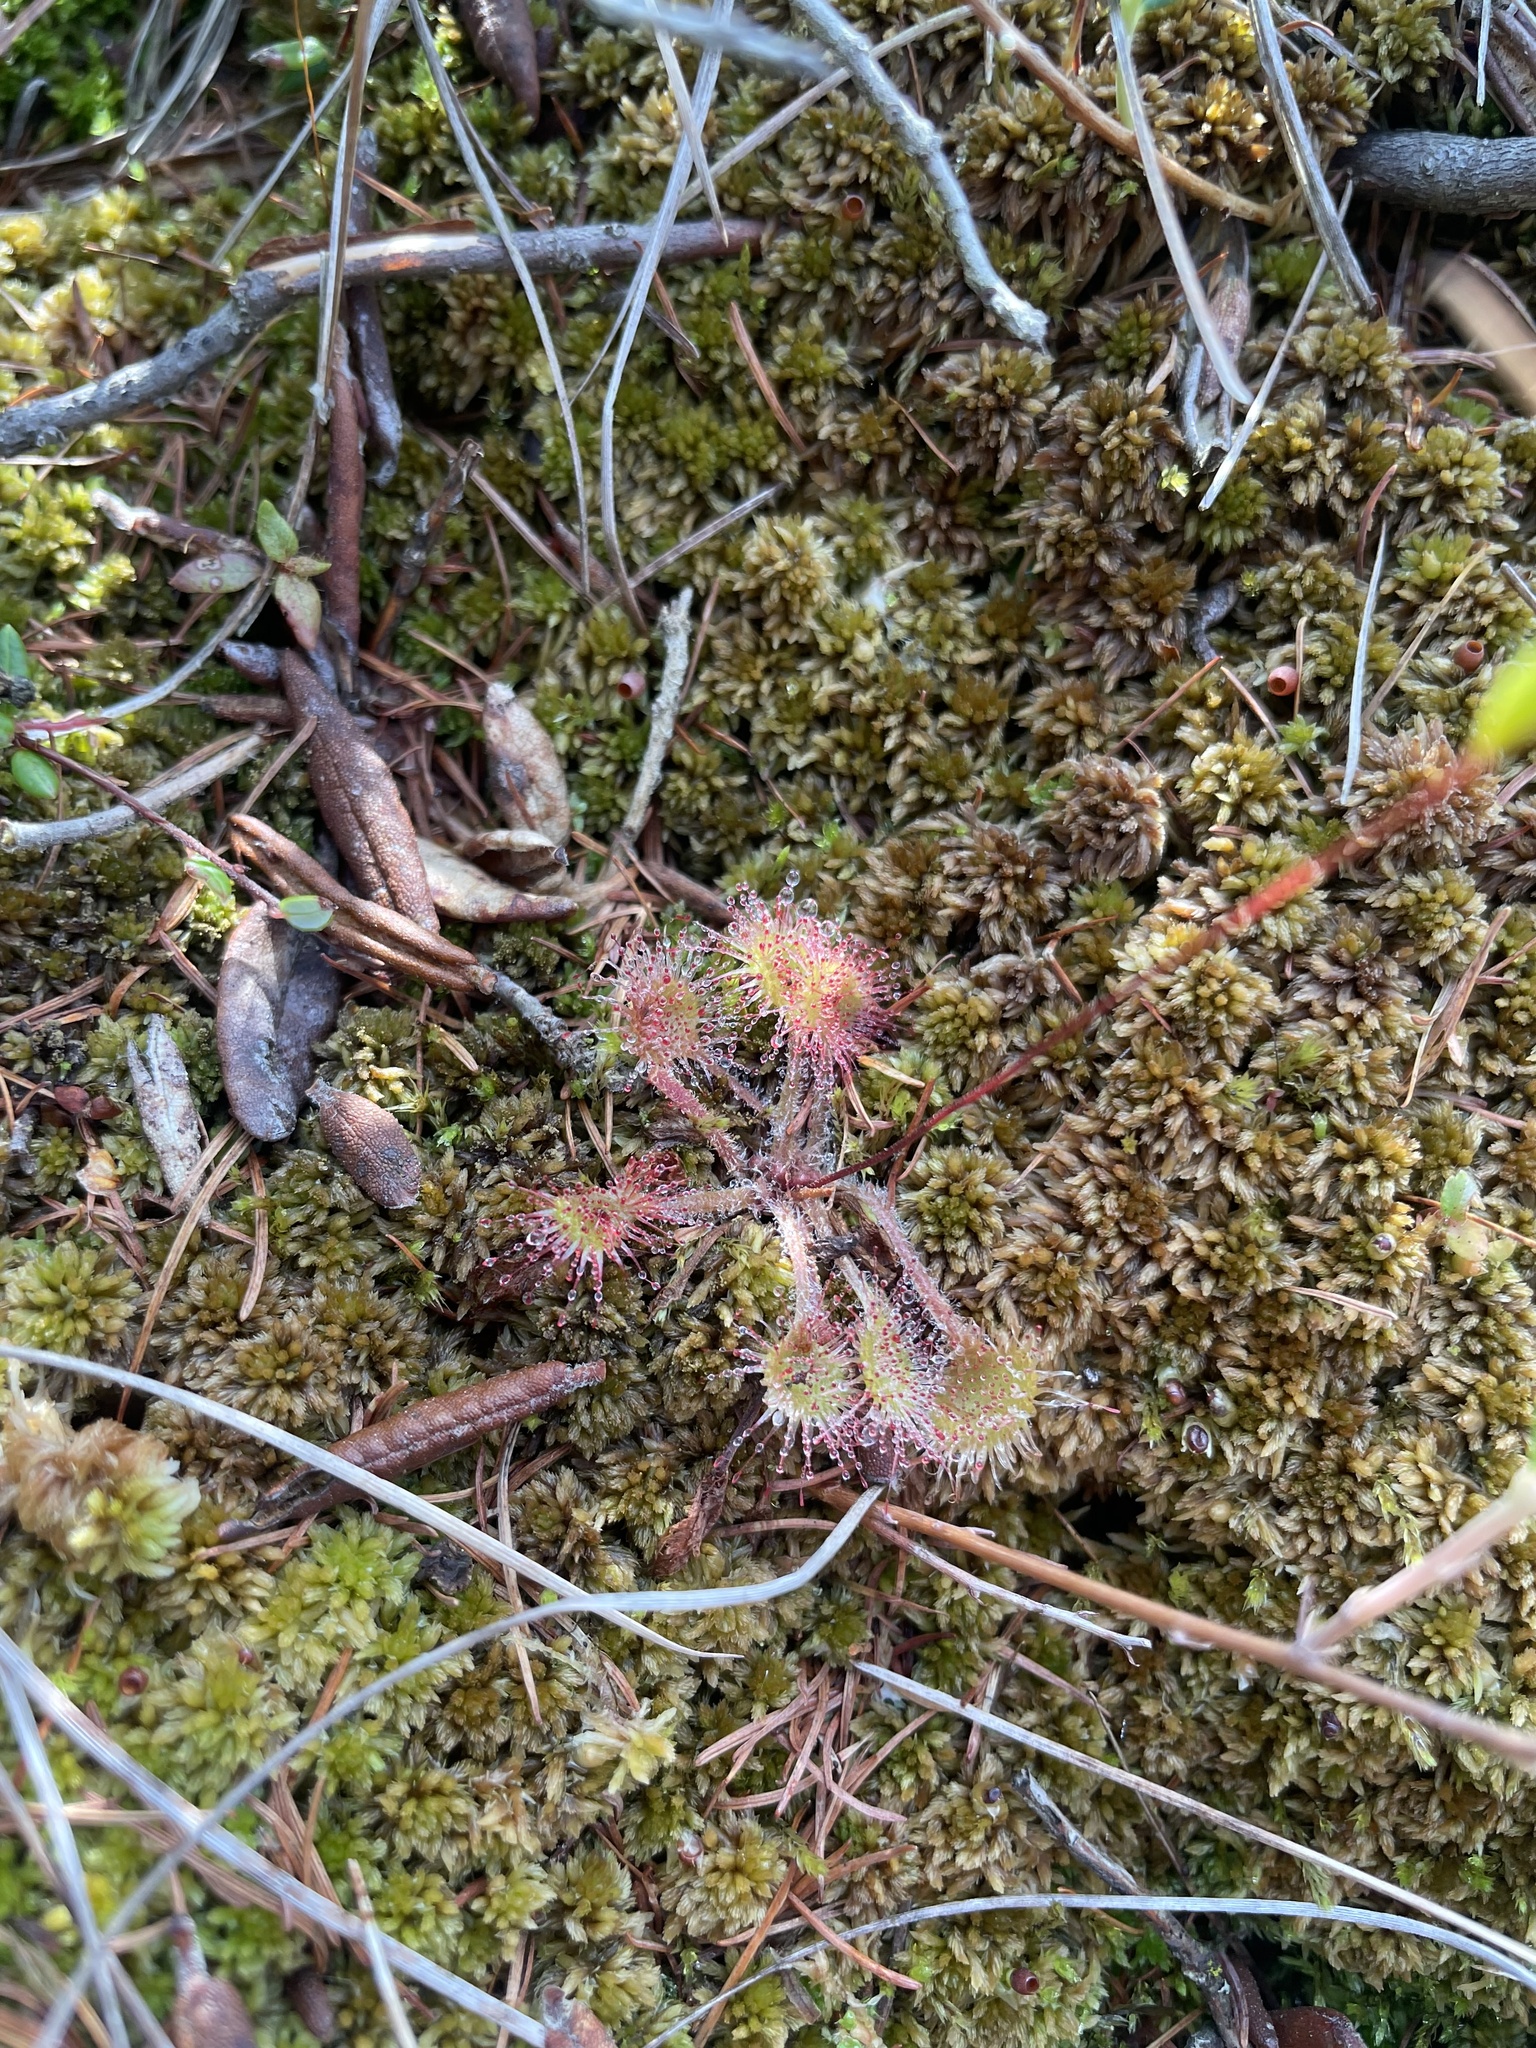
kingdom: Plantae
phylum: Tracheophyta
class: Magnoliopsida
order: Caryophyllales
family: Droseraceae
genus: Drosera
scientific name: Drosera rotundifolia
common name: Round-leaved sundew
